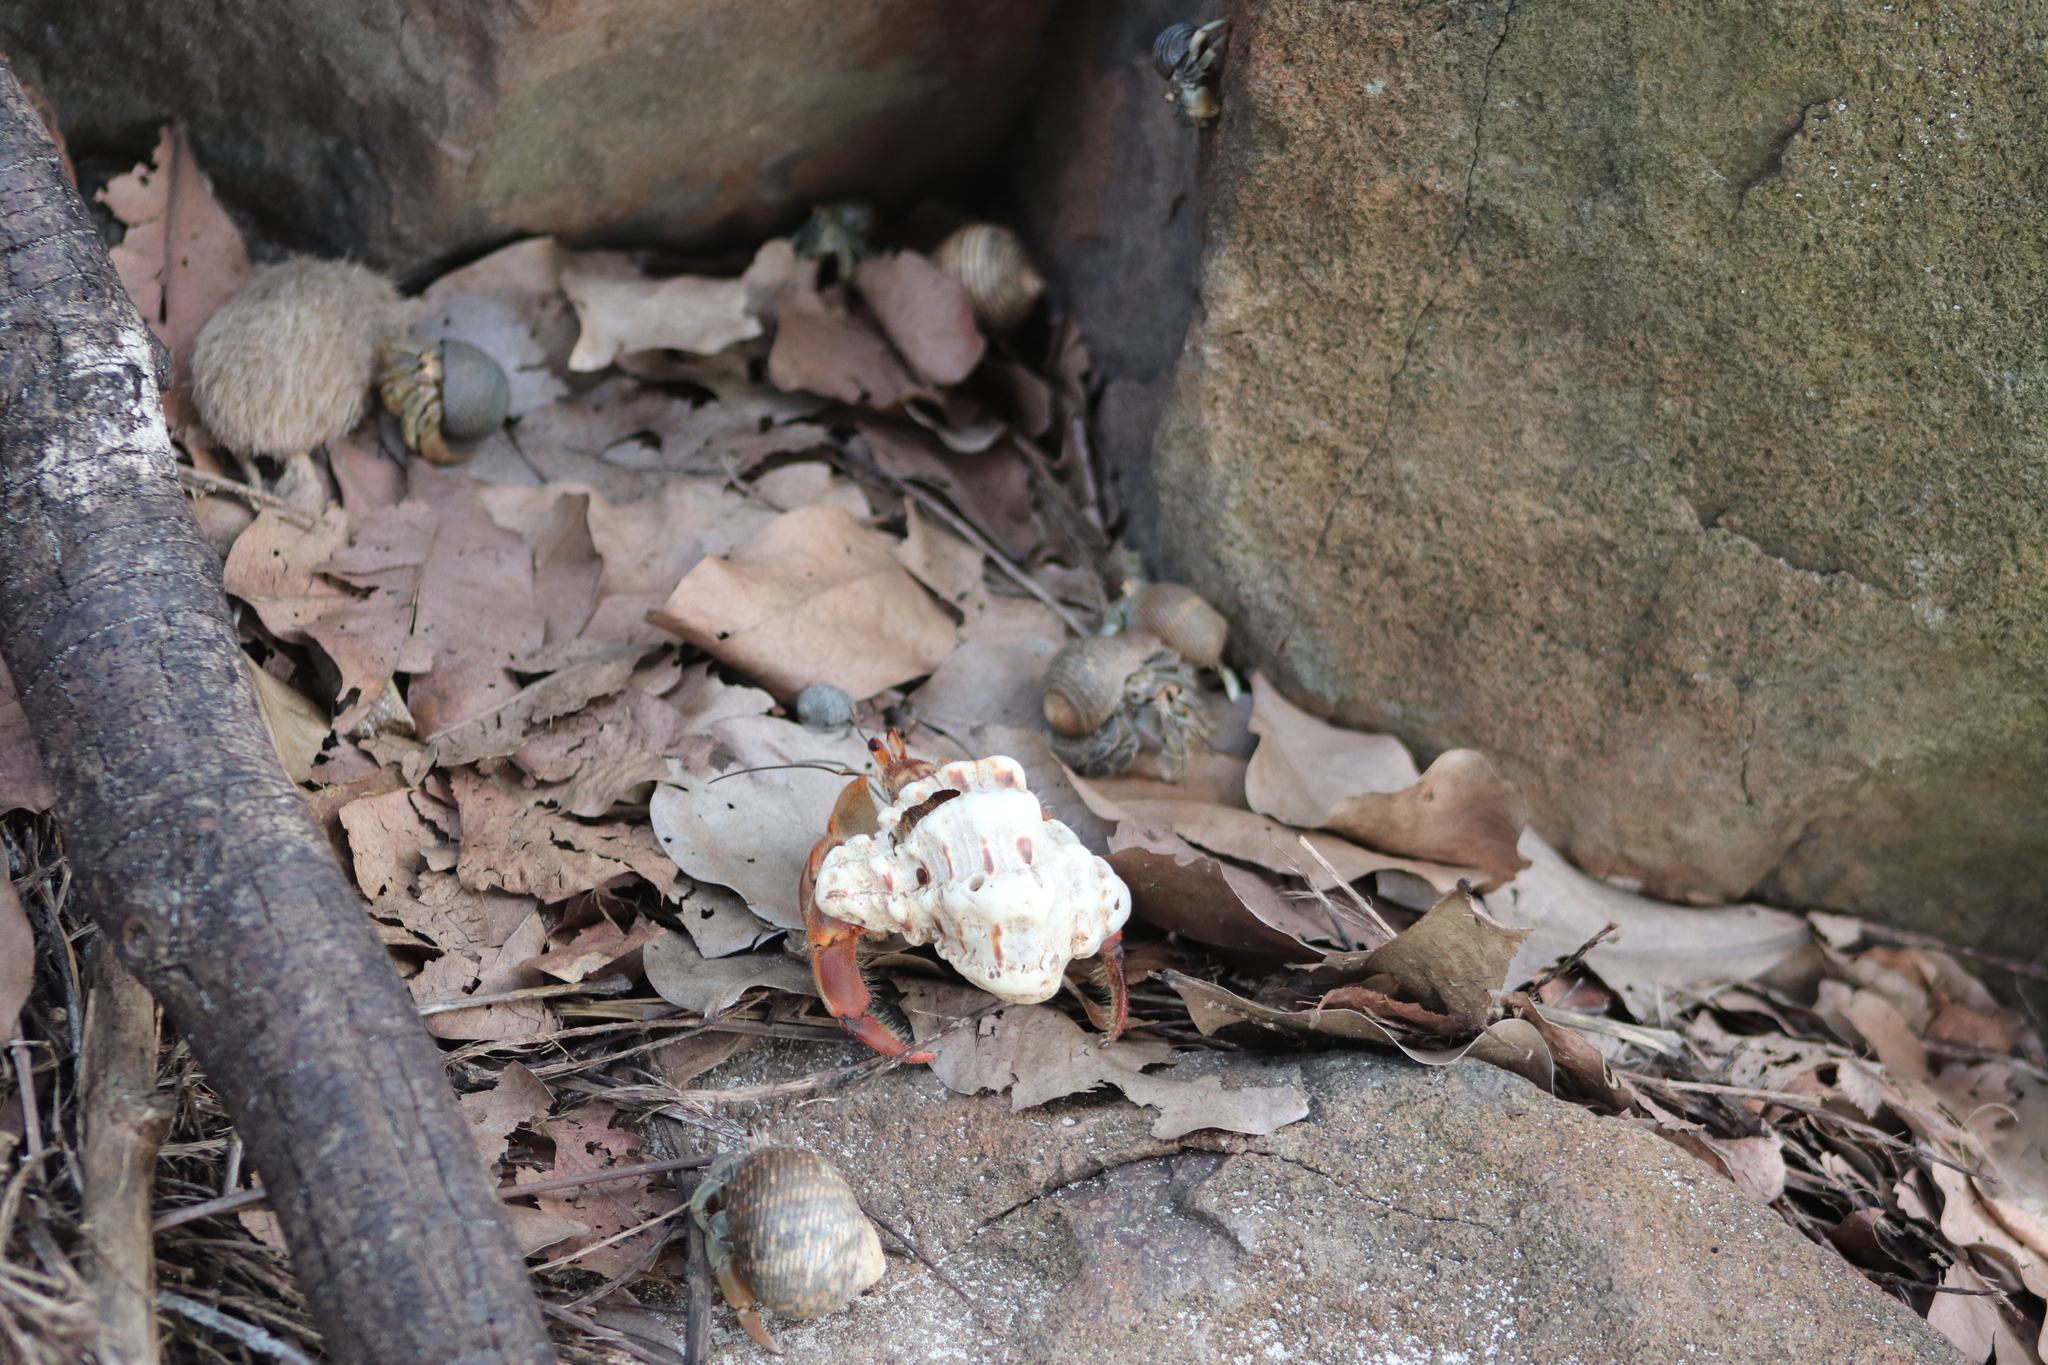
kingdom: Animalia
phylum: Arthropoda
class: Malacostraca
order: Decapoda
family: Coenobitidae
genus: Coenobita
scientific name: Coenobita compressus
